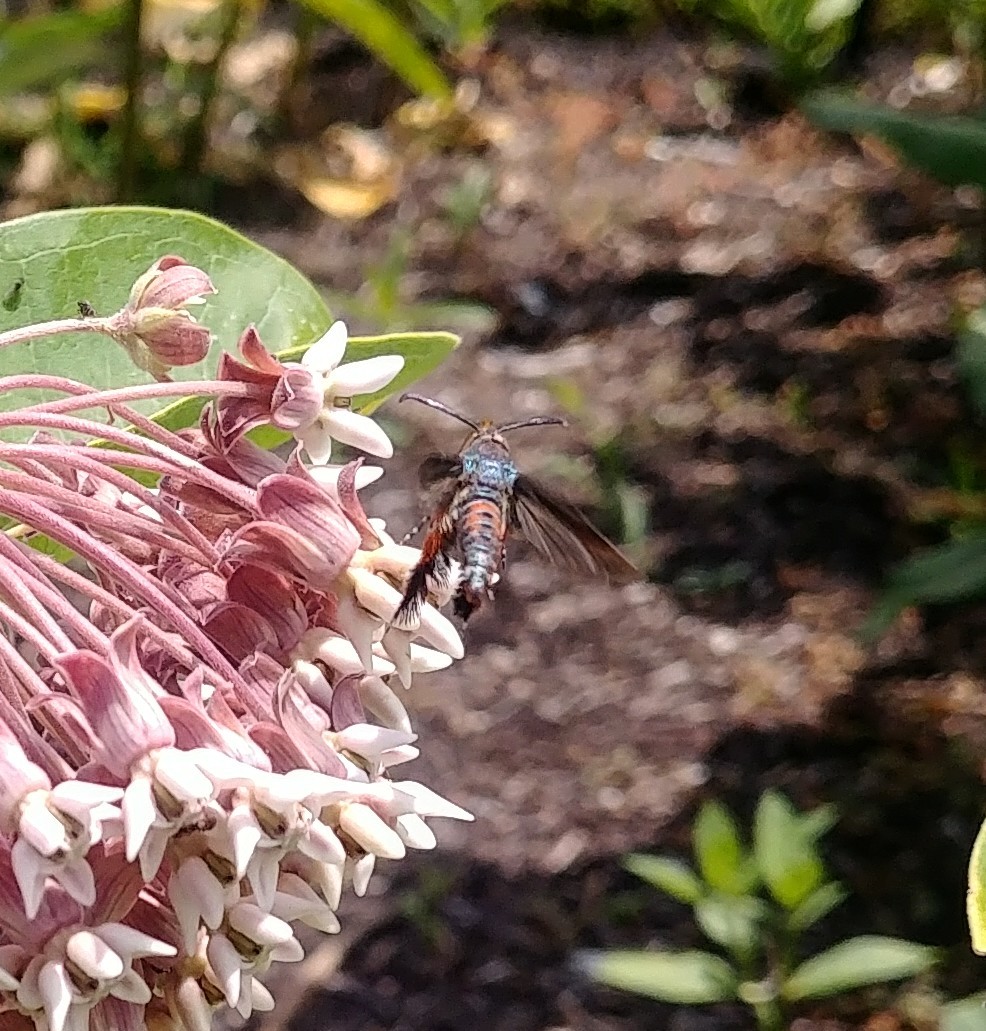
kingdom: Animalia
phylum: Arthropoda
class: Insecta
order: Lepidoptera
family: Sesiidae
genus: Eichlinia
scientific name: Eichlinia cucurbitae
